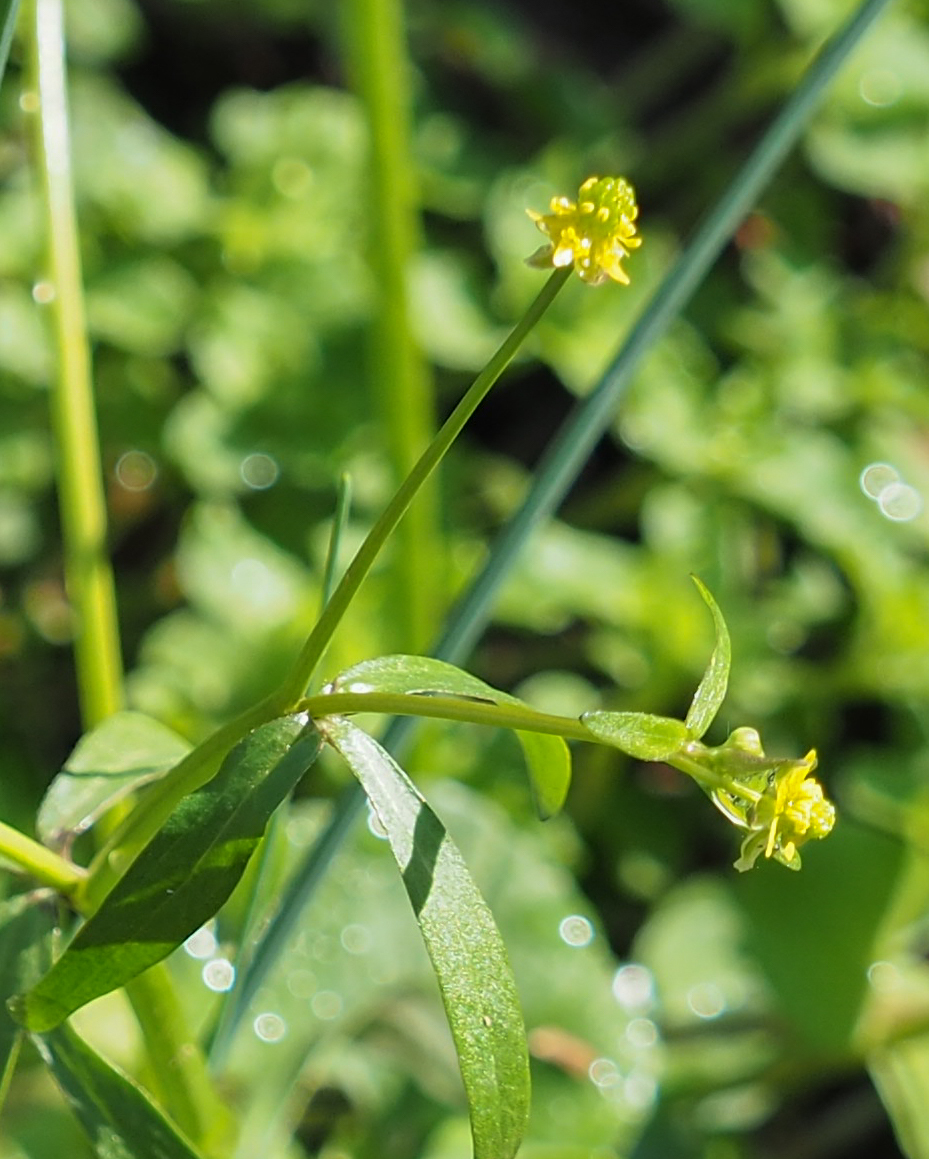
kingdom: Plantae
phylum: Tracheophyta
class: Magnoliopsida
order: Ranunculales
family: Ranunculaceae
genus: Ranunculus
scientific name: Ranunculus abortivus
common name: Early wood buttercup
